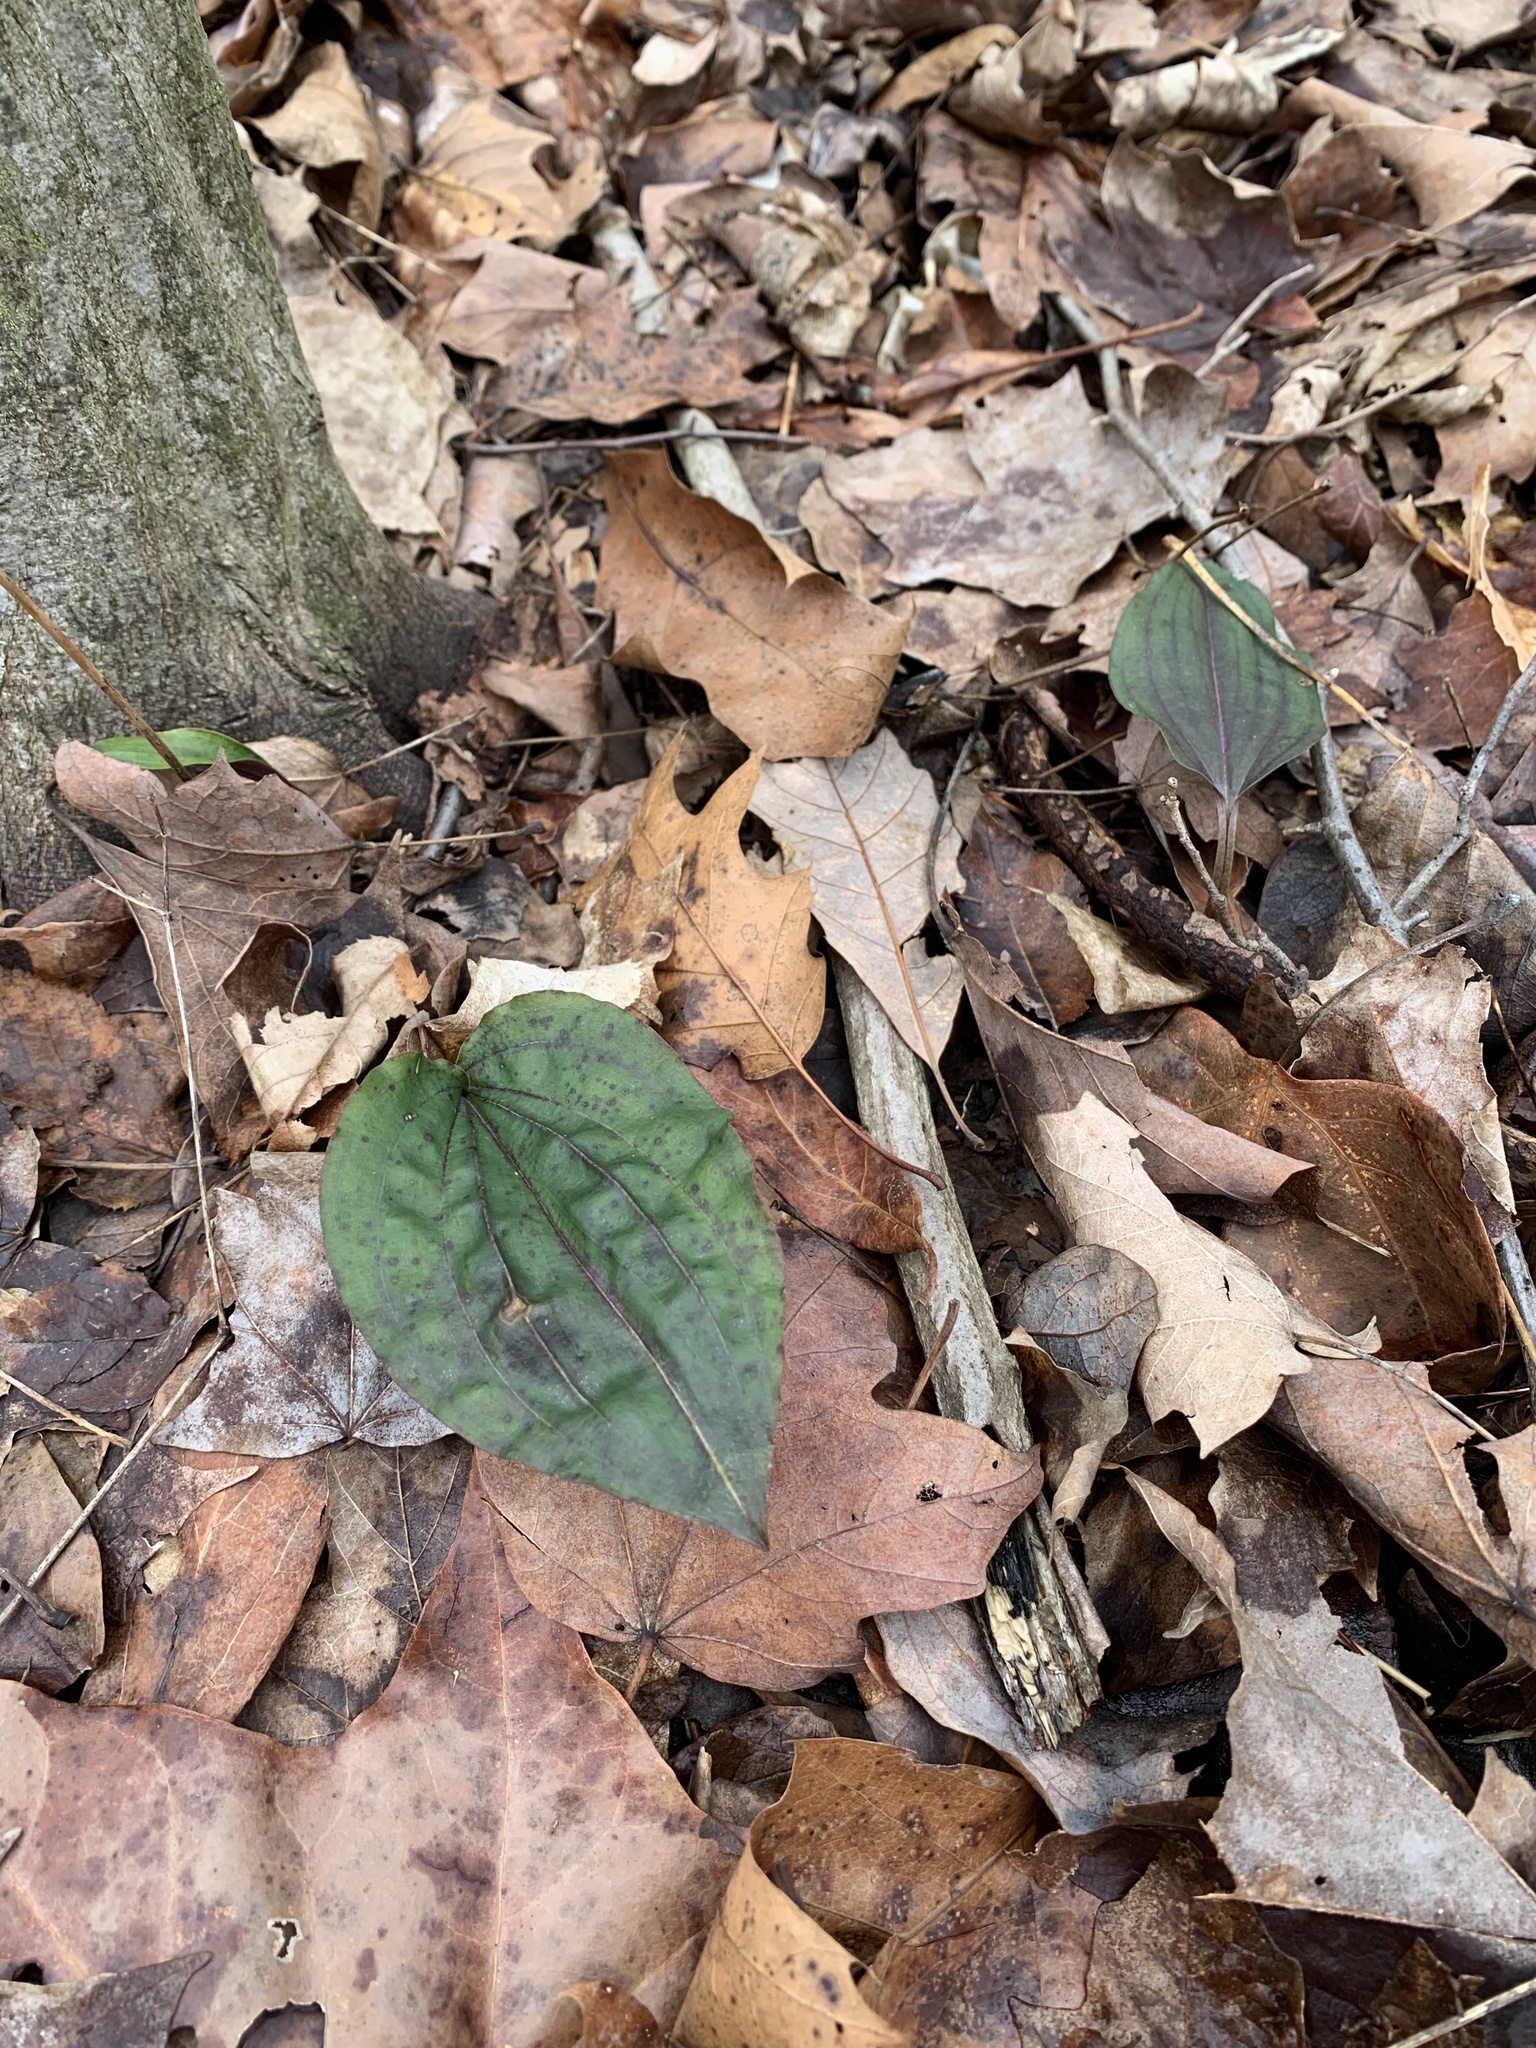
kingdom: Plantae
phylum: Tracheophyta
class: Liliopsida
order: Asparagales
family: Orchidaceae
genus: Tipularia
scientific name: Tipularia discolor
